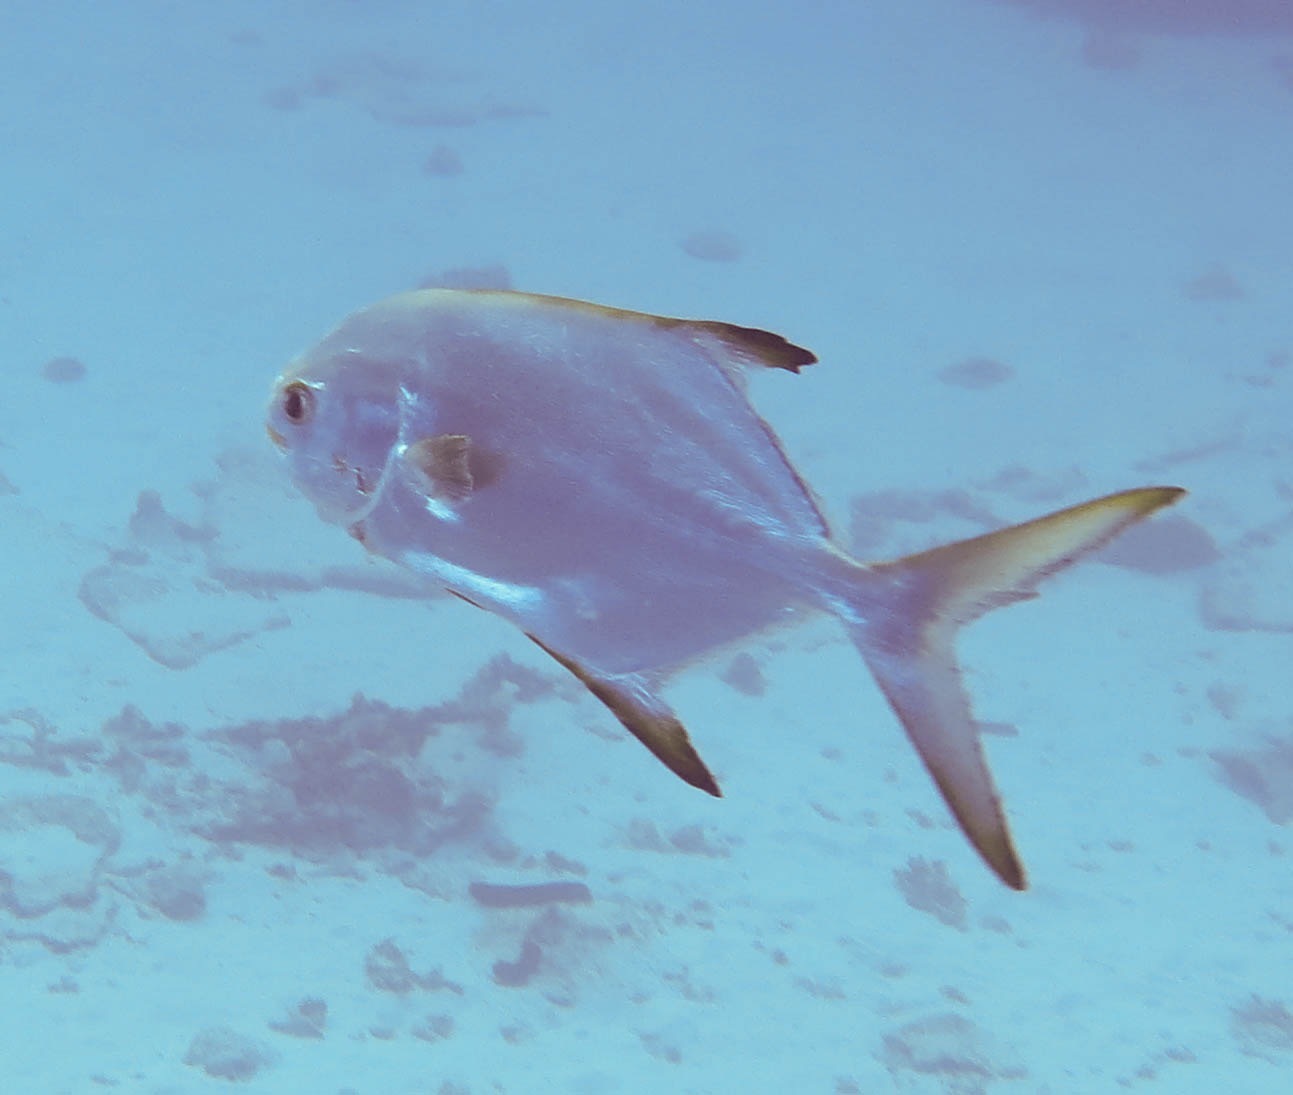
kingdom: Animalia
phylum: Chordata
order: Perciformes
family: Carangidae
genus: Trachinotus
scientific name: Trachinotus blochii
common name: Snubnose pompano
